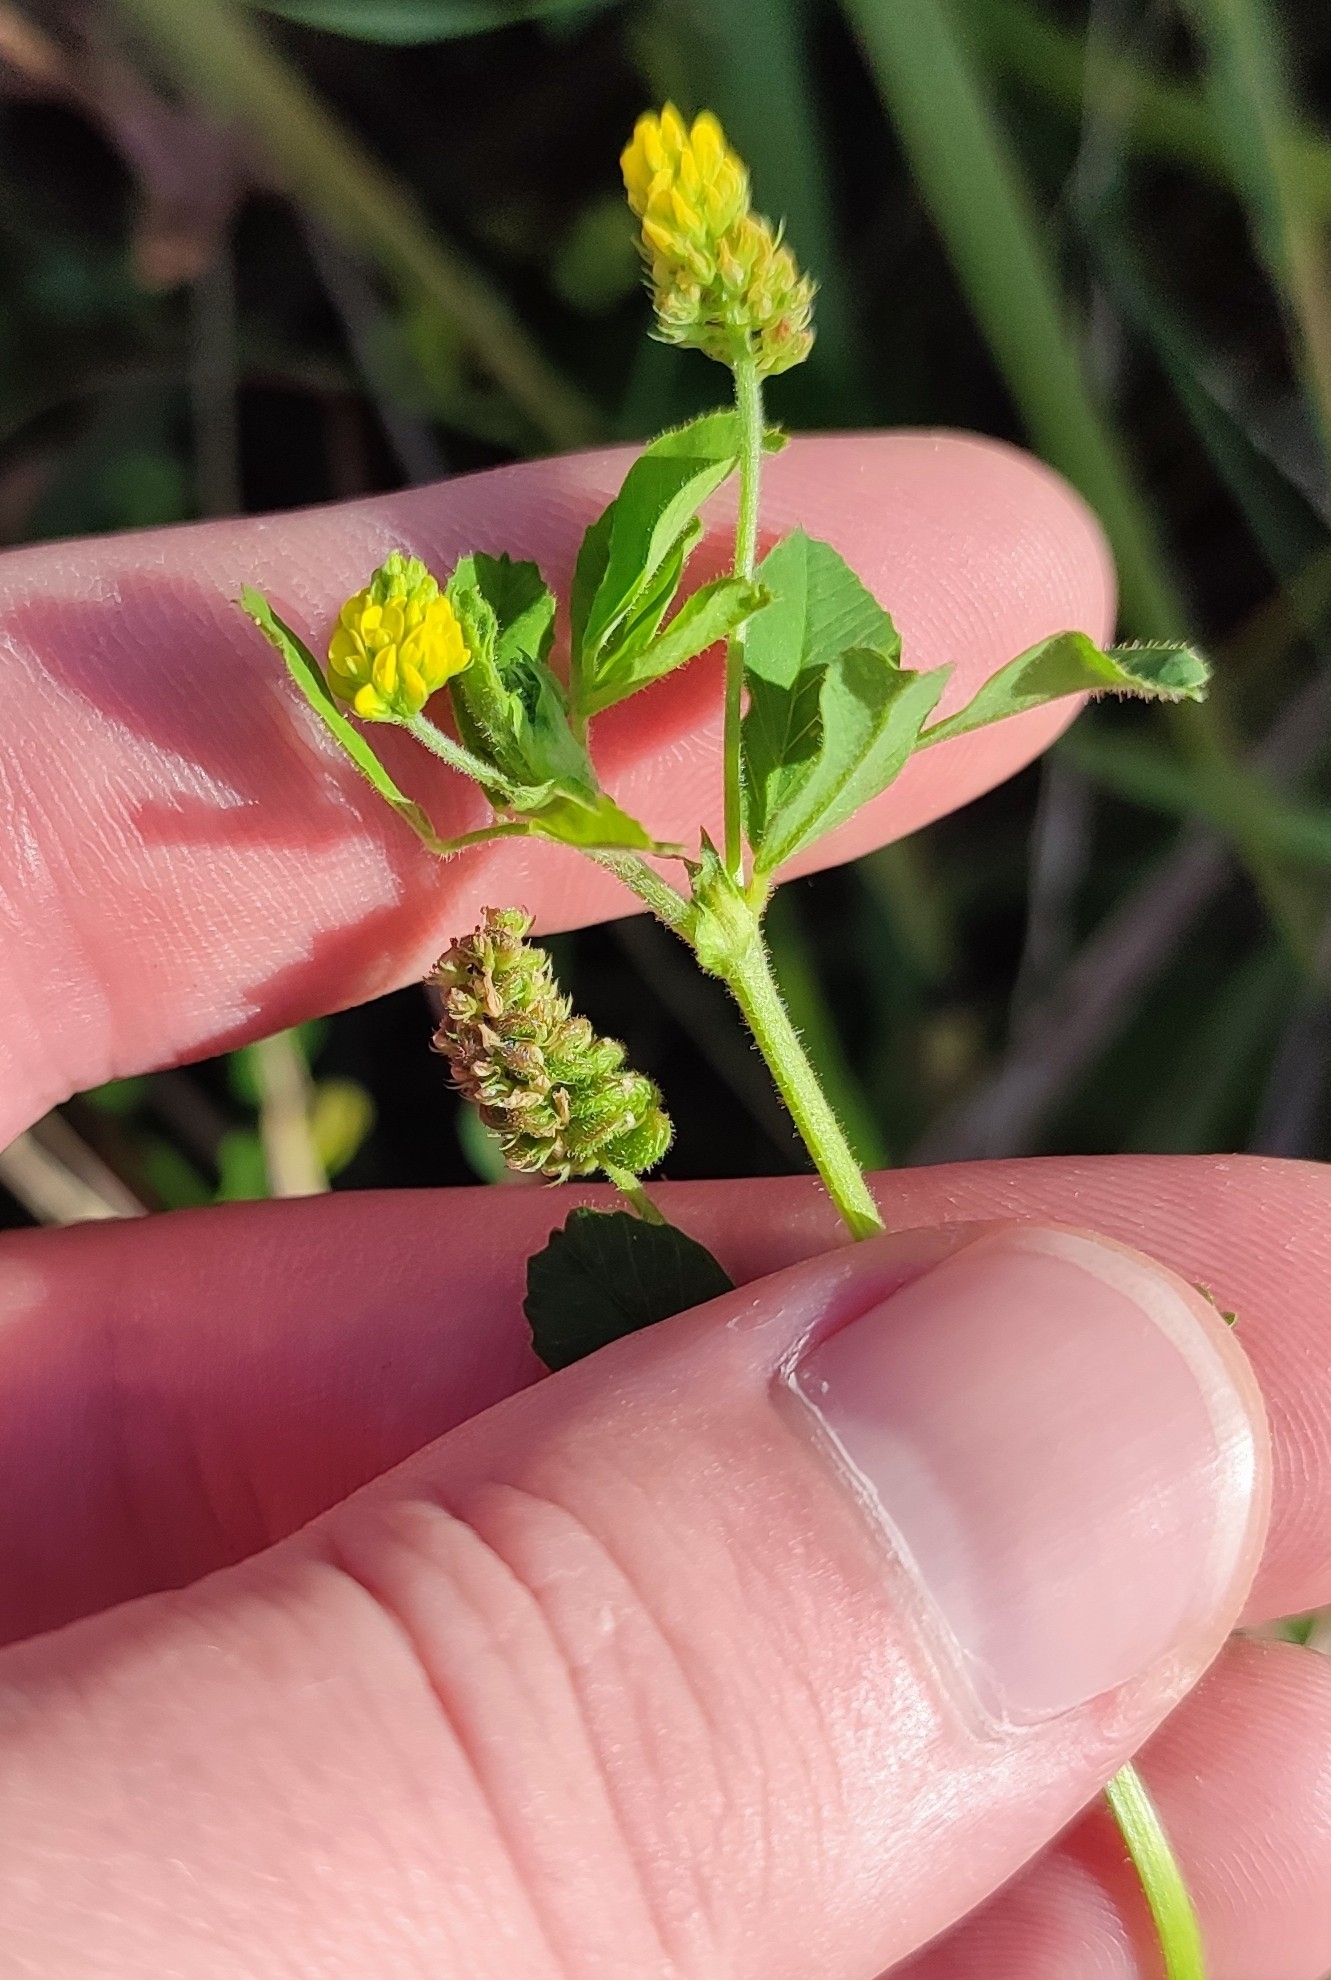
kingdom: Plantae
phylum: Tracheophyta
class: Magnoliopsida
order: Fabales
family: Fabaceae
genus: Medicago
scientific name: Medicago lupulina
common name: Black medick
